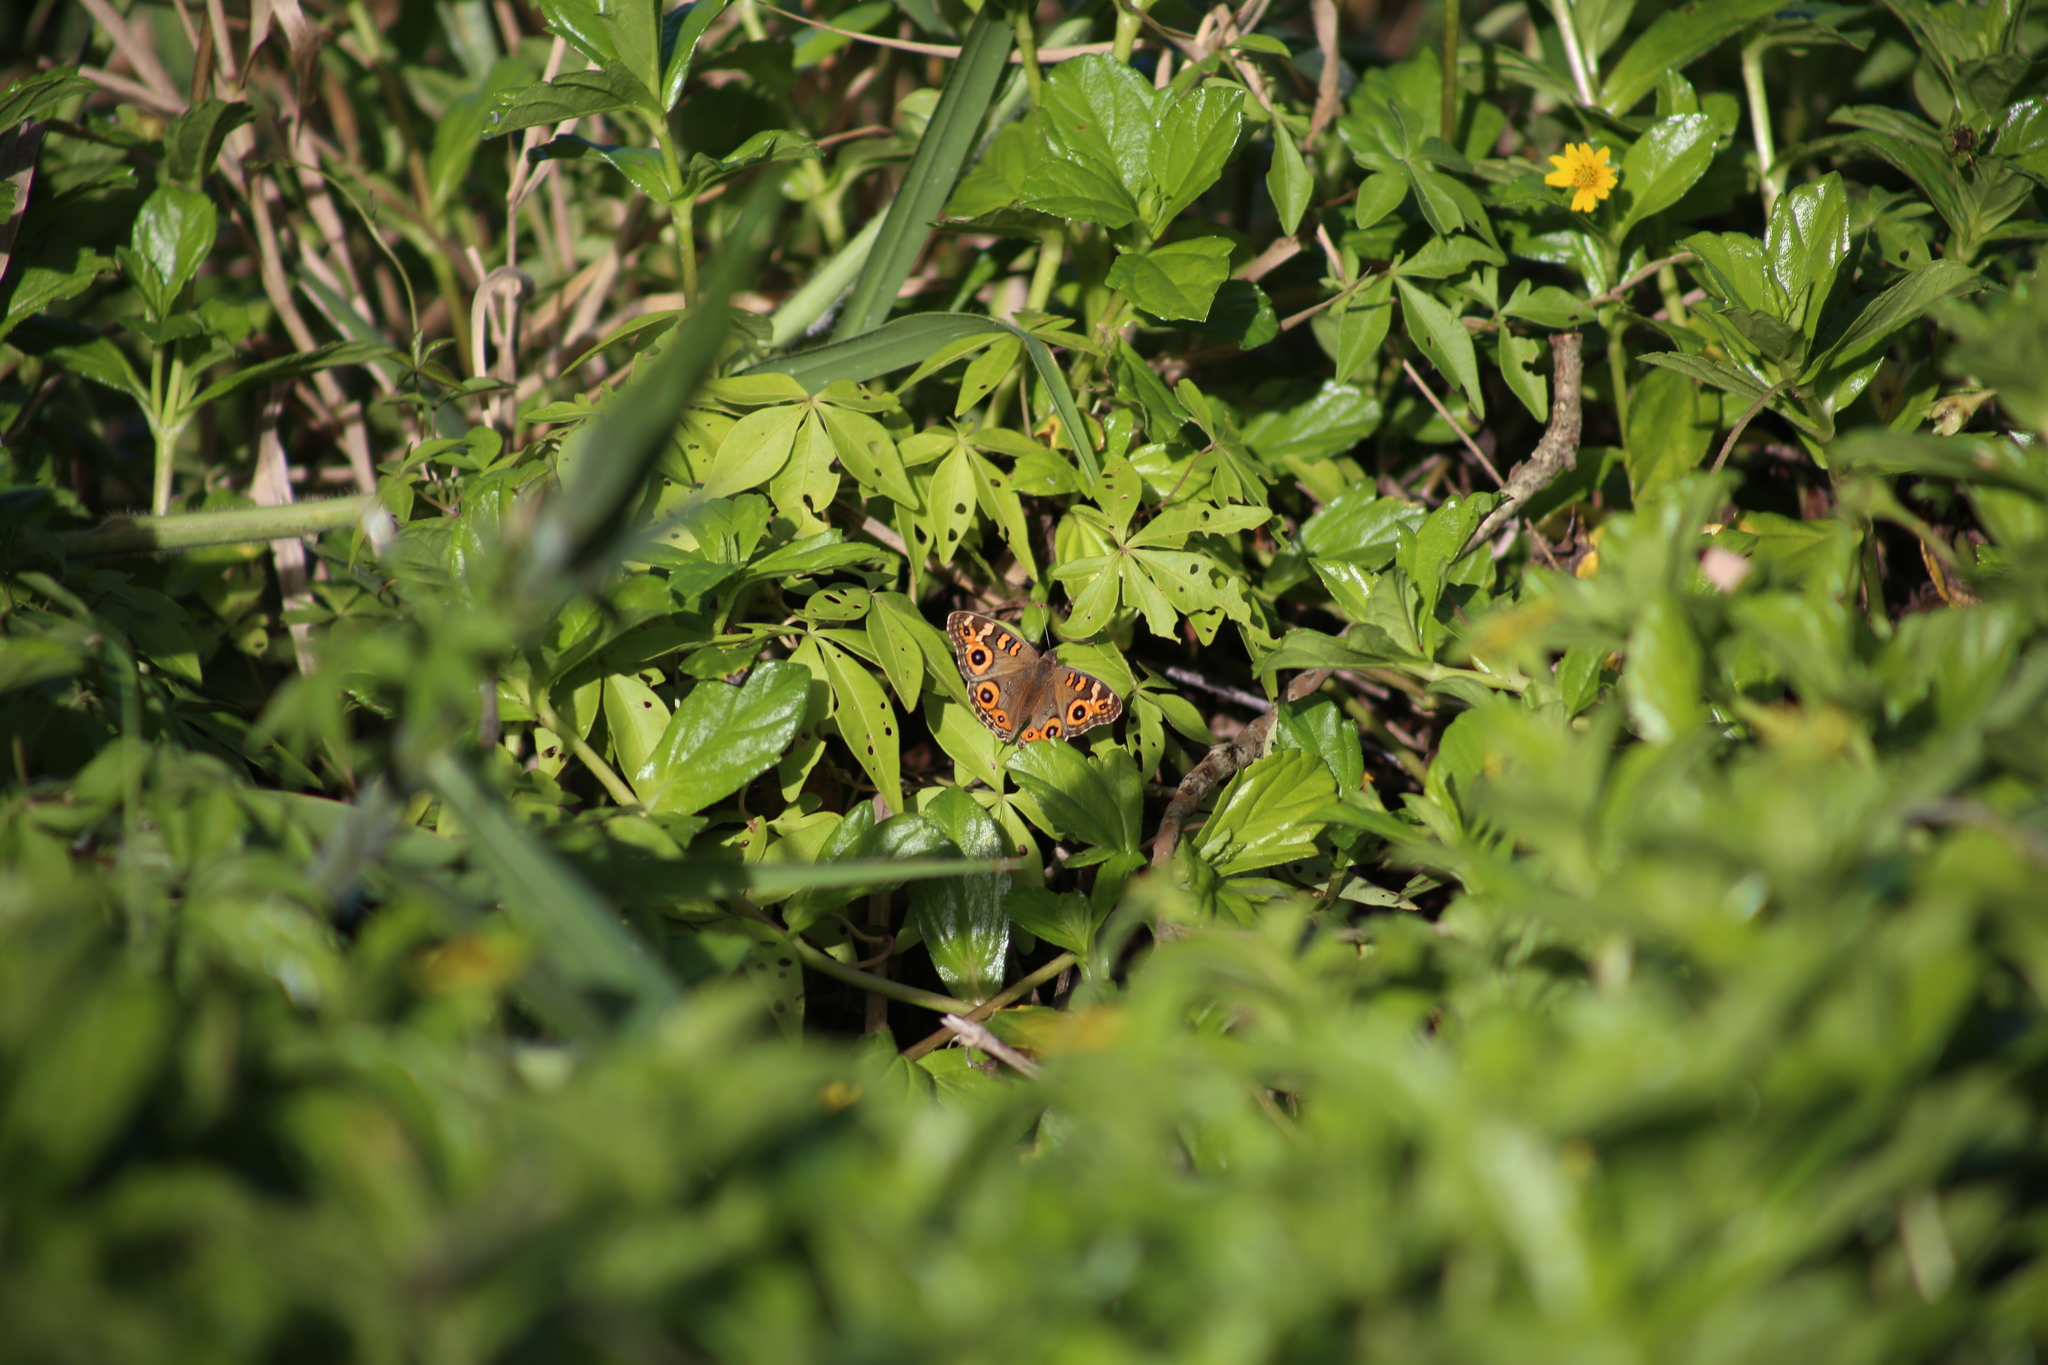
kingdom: Animalia
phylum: Arthropoda
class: Insecta
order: Lepidoptera
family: Nymphalidae
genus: Junonia
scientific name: Junonia villida
